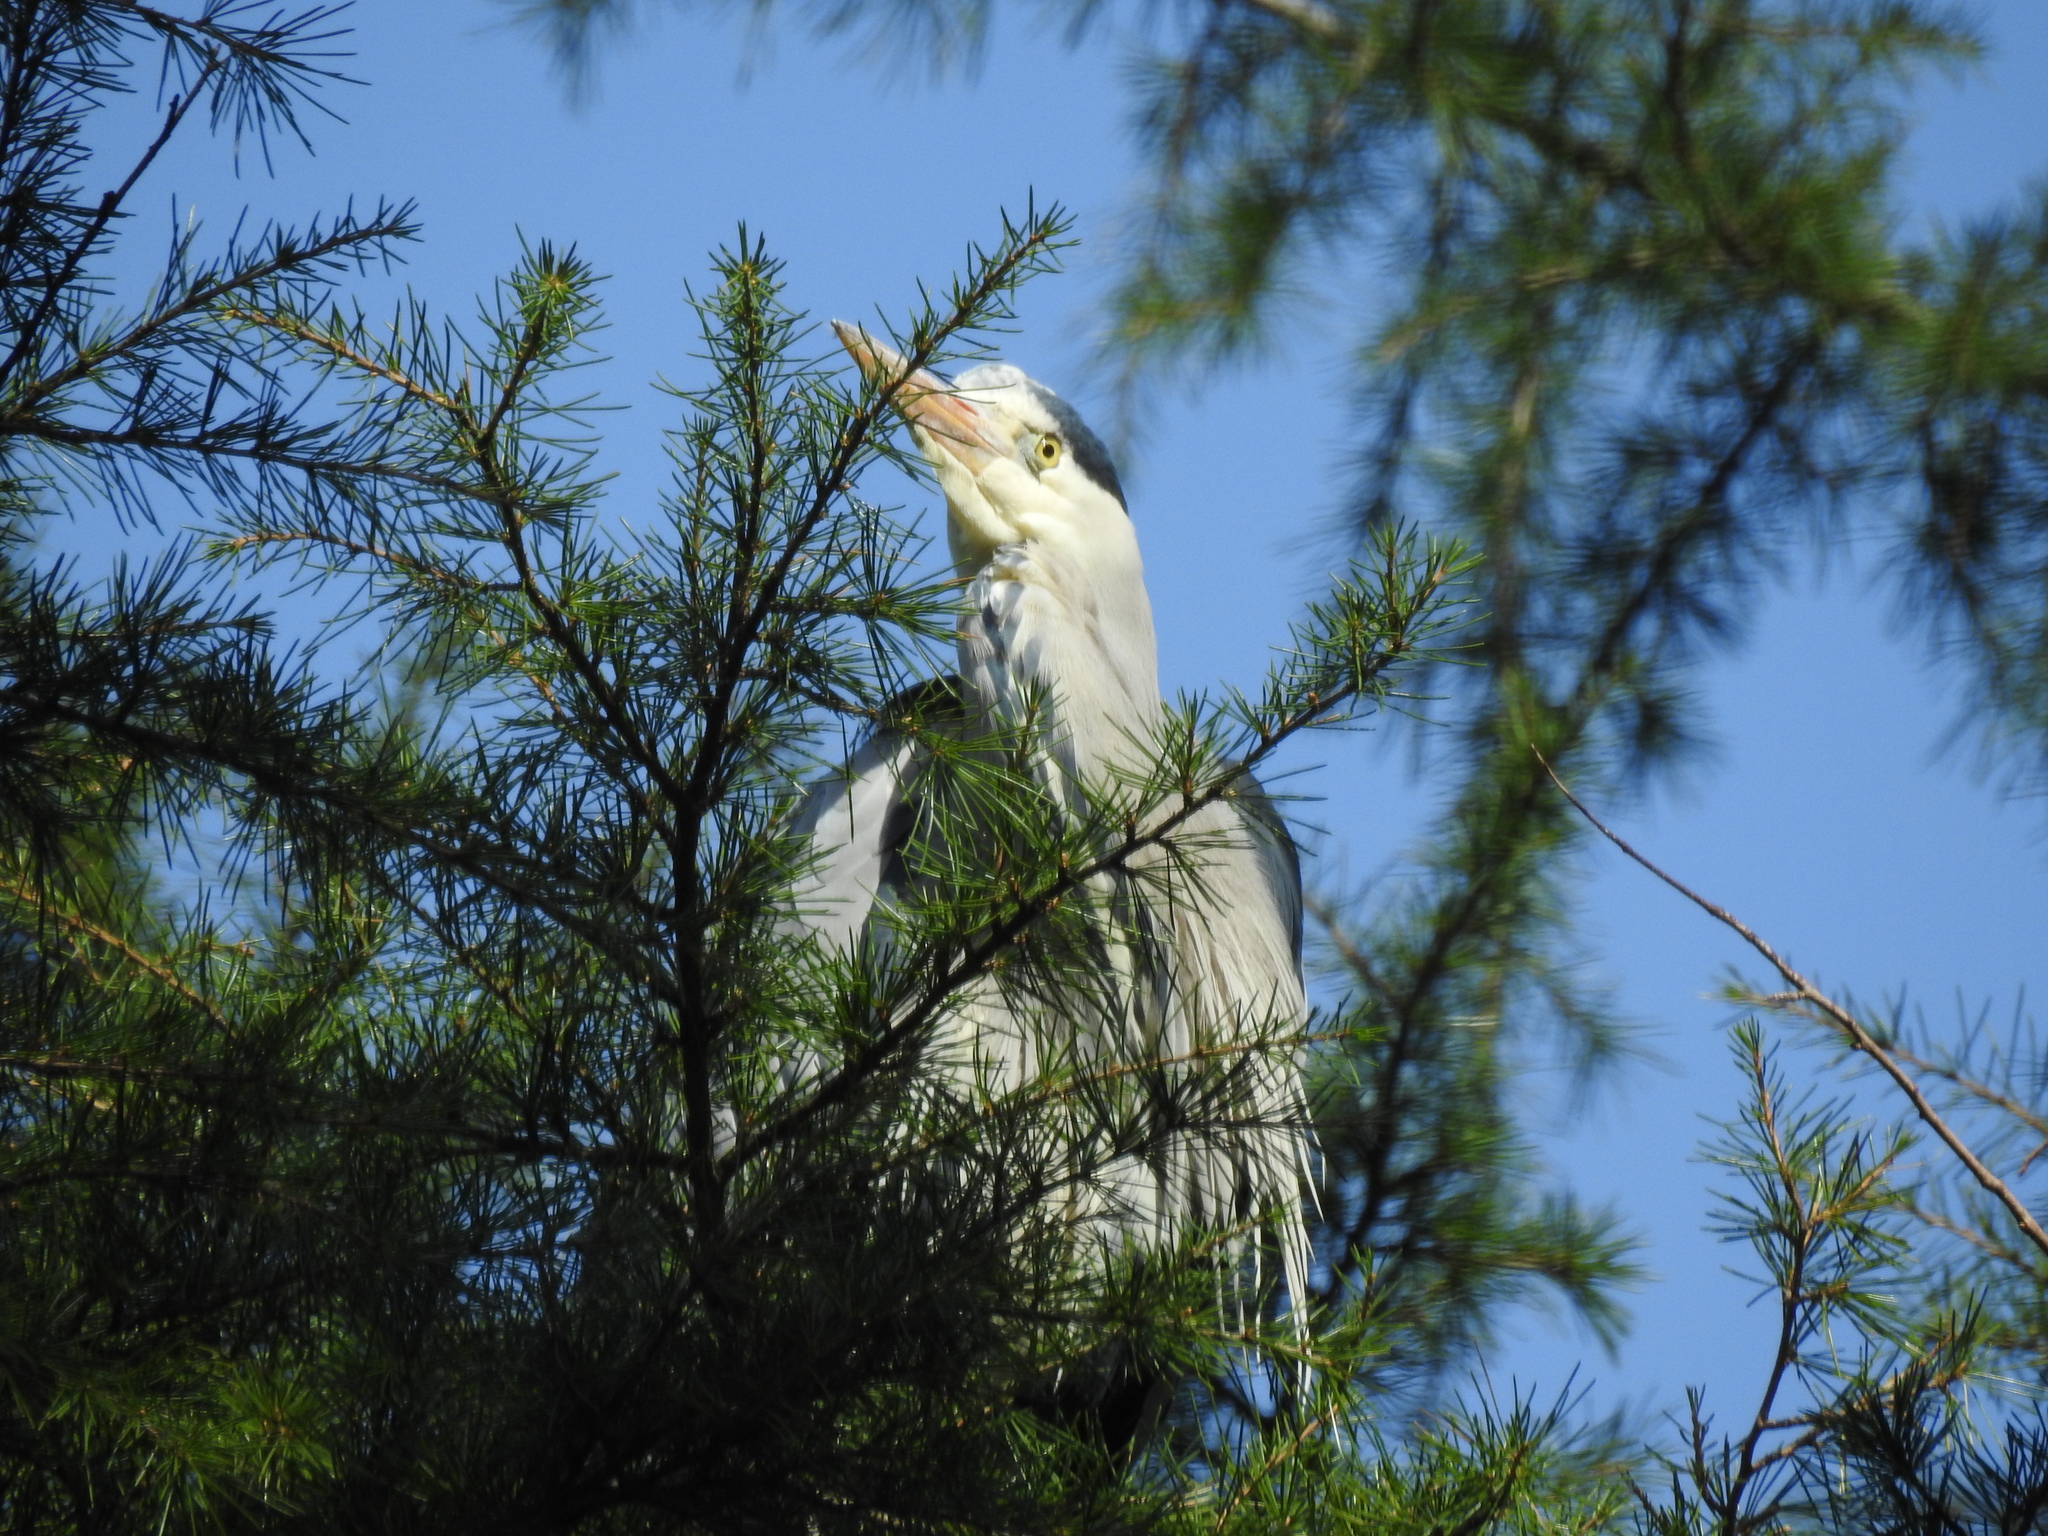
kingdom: Animalia
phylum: Chordata
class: Aves
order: Pelecaniformes
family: Ardeidae
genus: Ardea
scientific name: Ardea cinerea
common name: Grey heron
